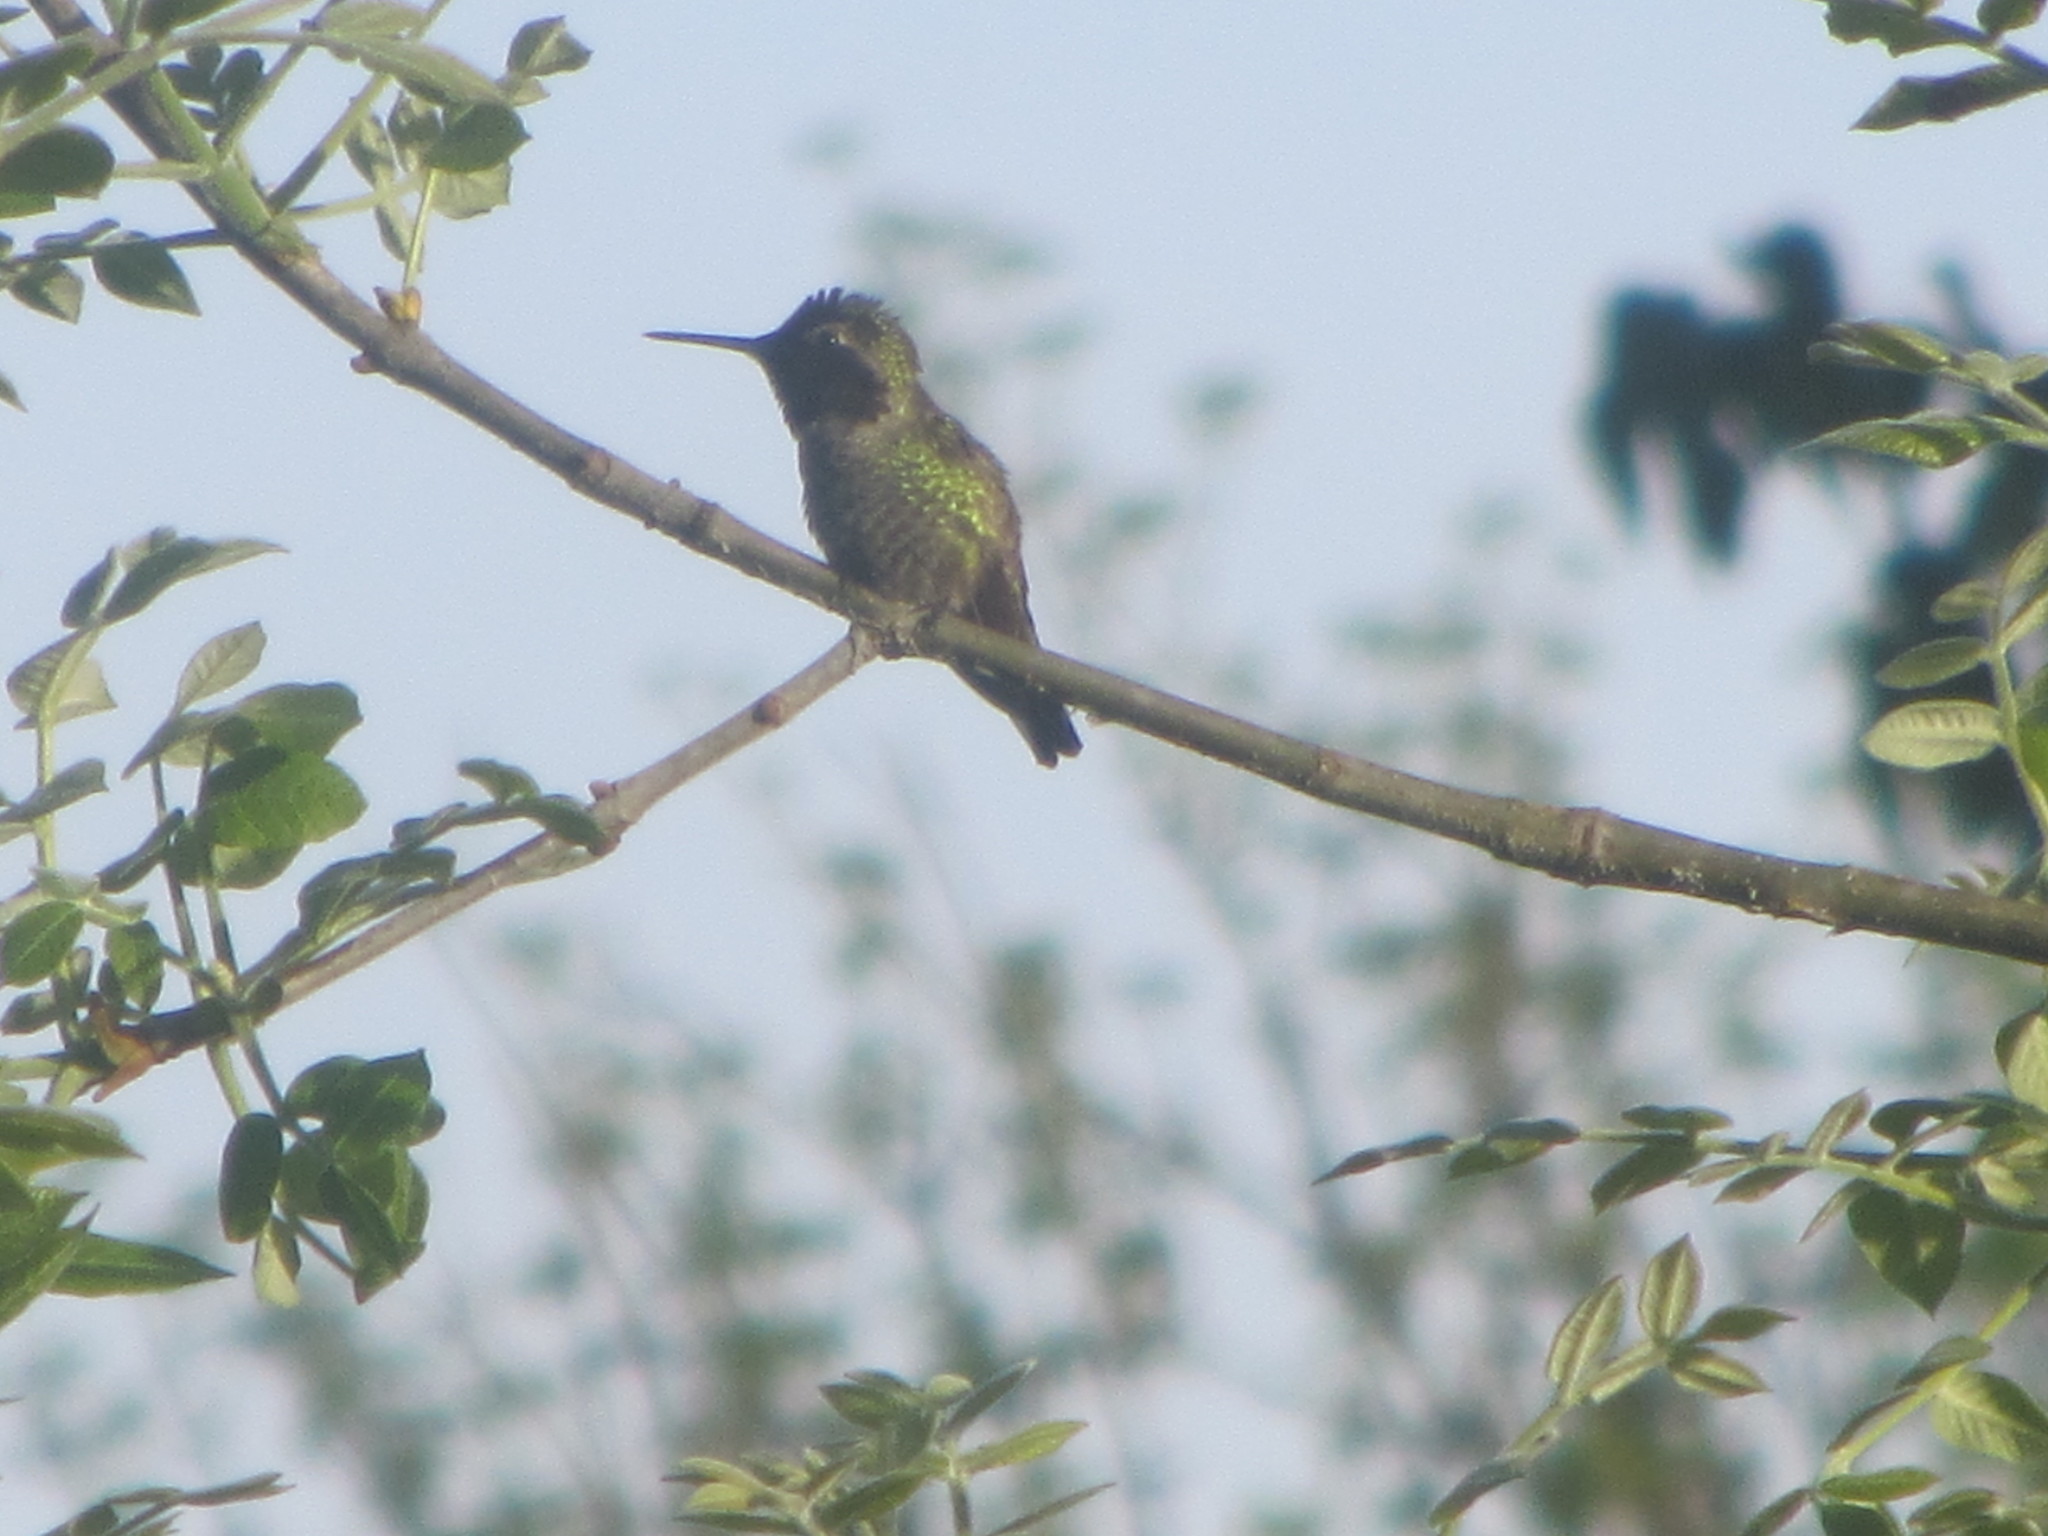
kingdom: Animalia
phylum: Chordata
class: Aves
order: Apodiformes
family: Trochilidae
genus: Calypte
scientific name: Calypte anna
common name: Anna's hummingbird
